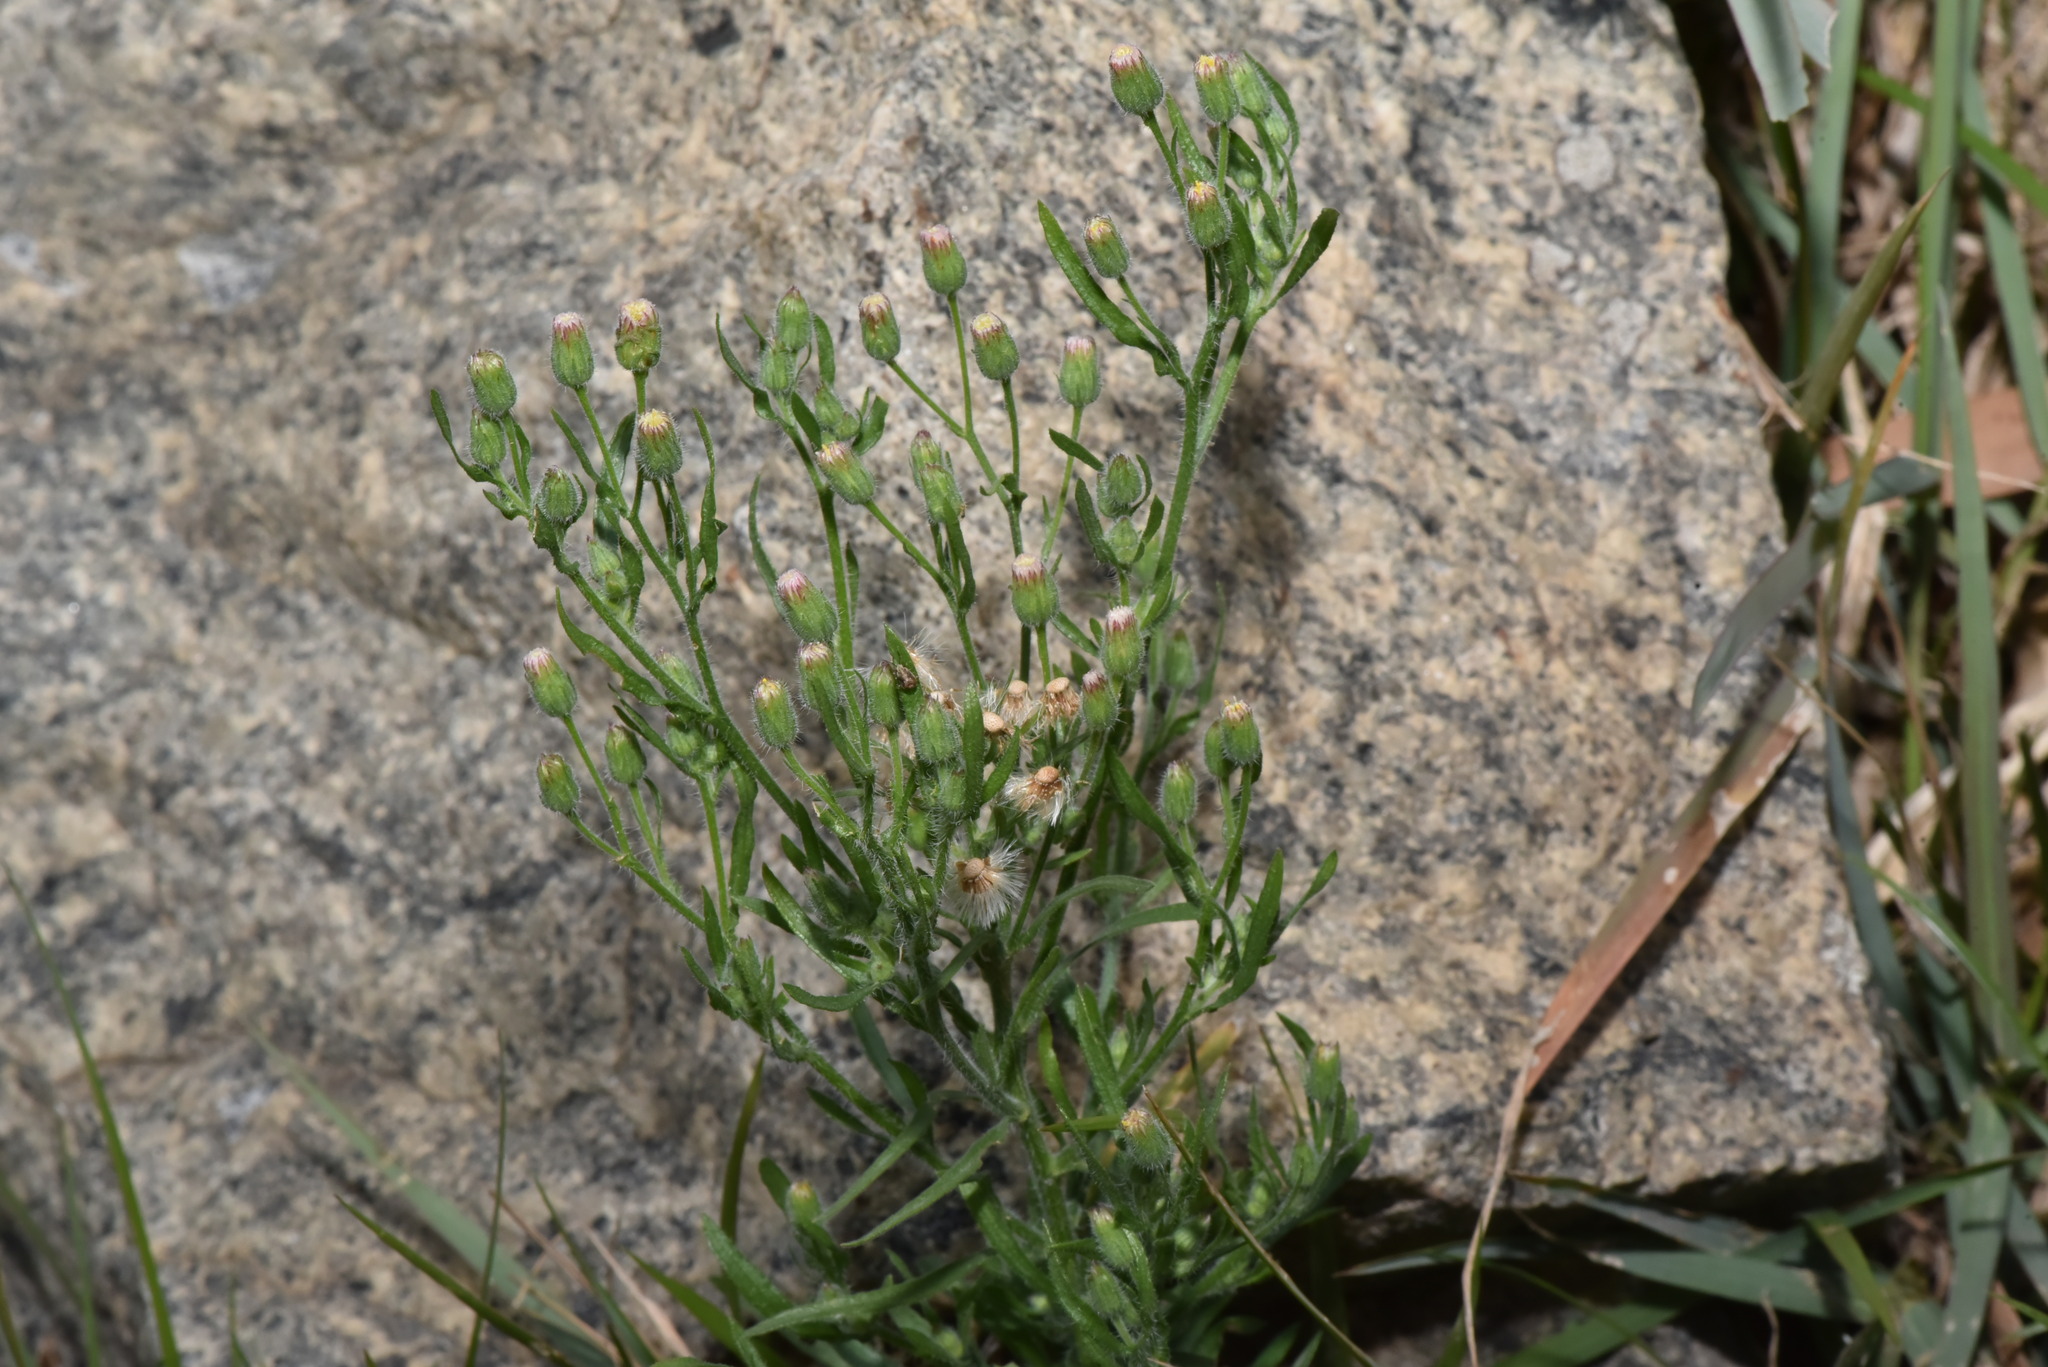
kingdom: Plantae
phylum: Tracheophyta
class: Magnoliopsida
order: Asterales
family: Asteraceae
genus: Erigeron
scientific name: Erigeron sumatrensis
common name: Daisy
